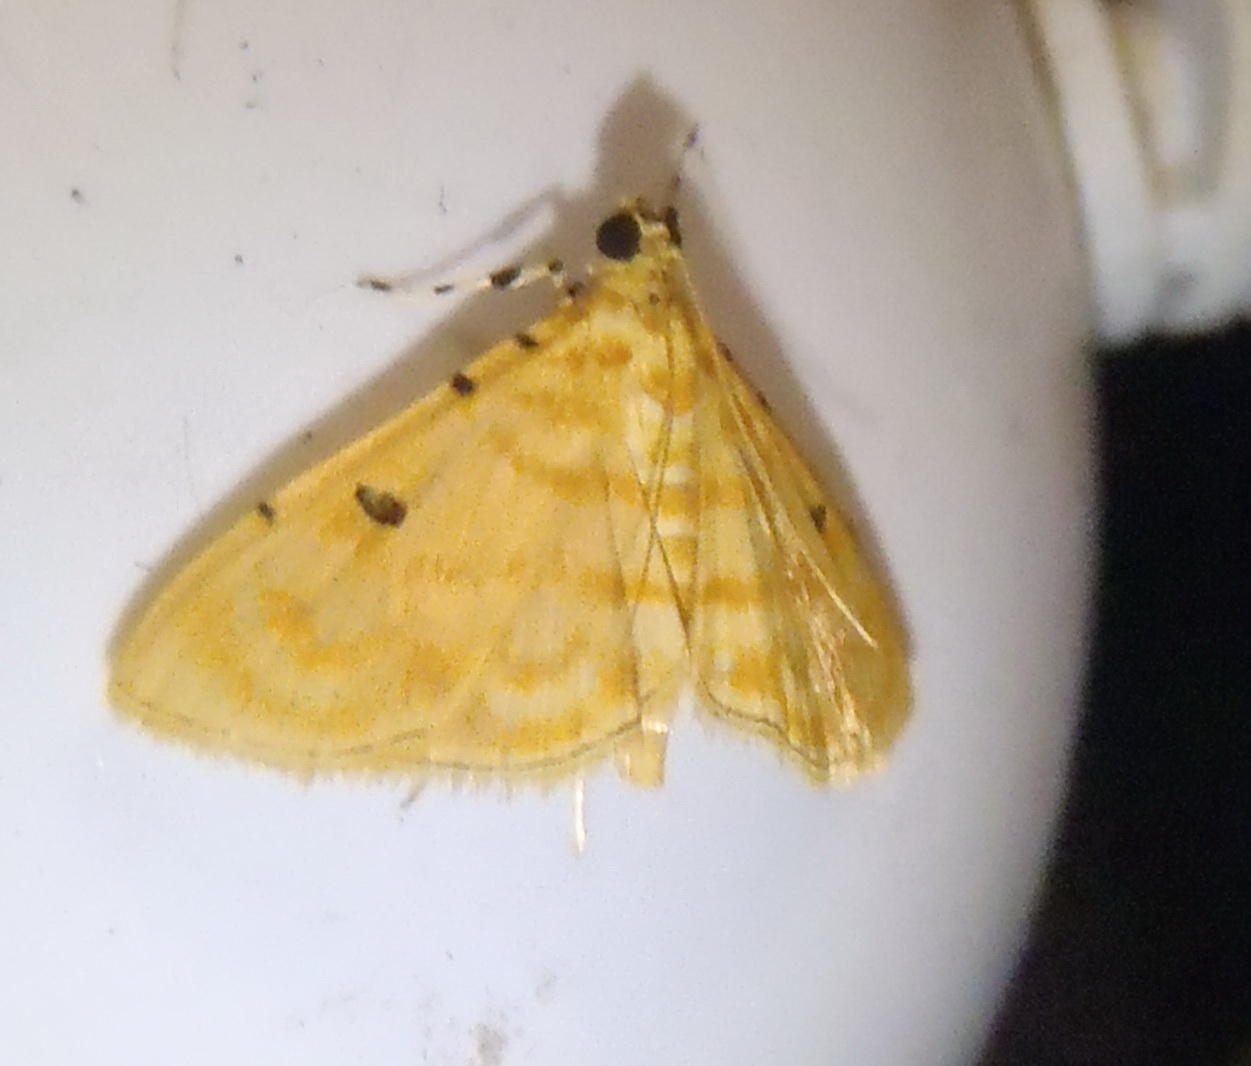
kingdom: Animalia
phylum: Arthropoda
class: Insecta
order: Lepidoptera
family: Crambidae
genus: Notarcha
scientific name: Notarcha quaternalis
